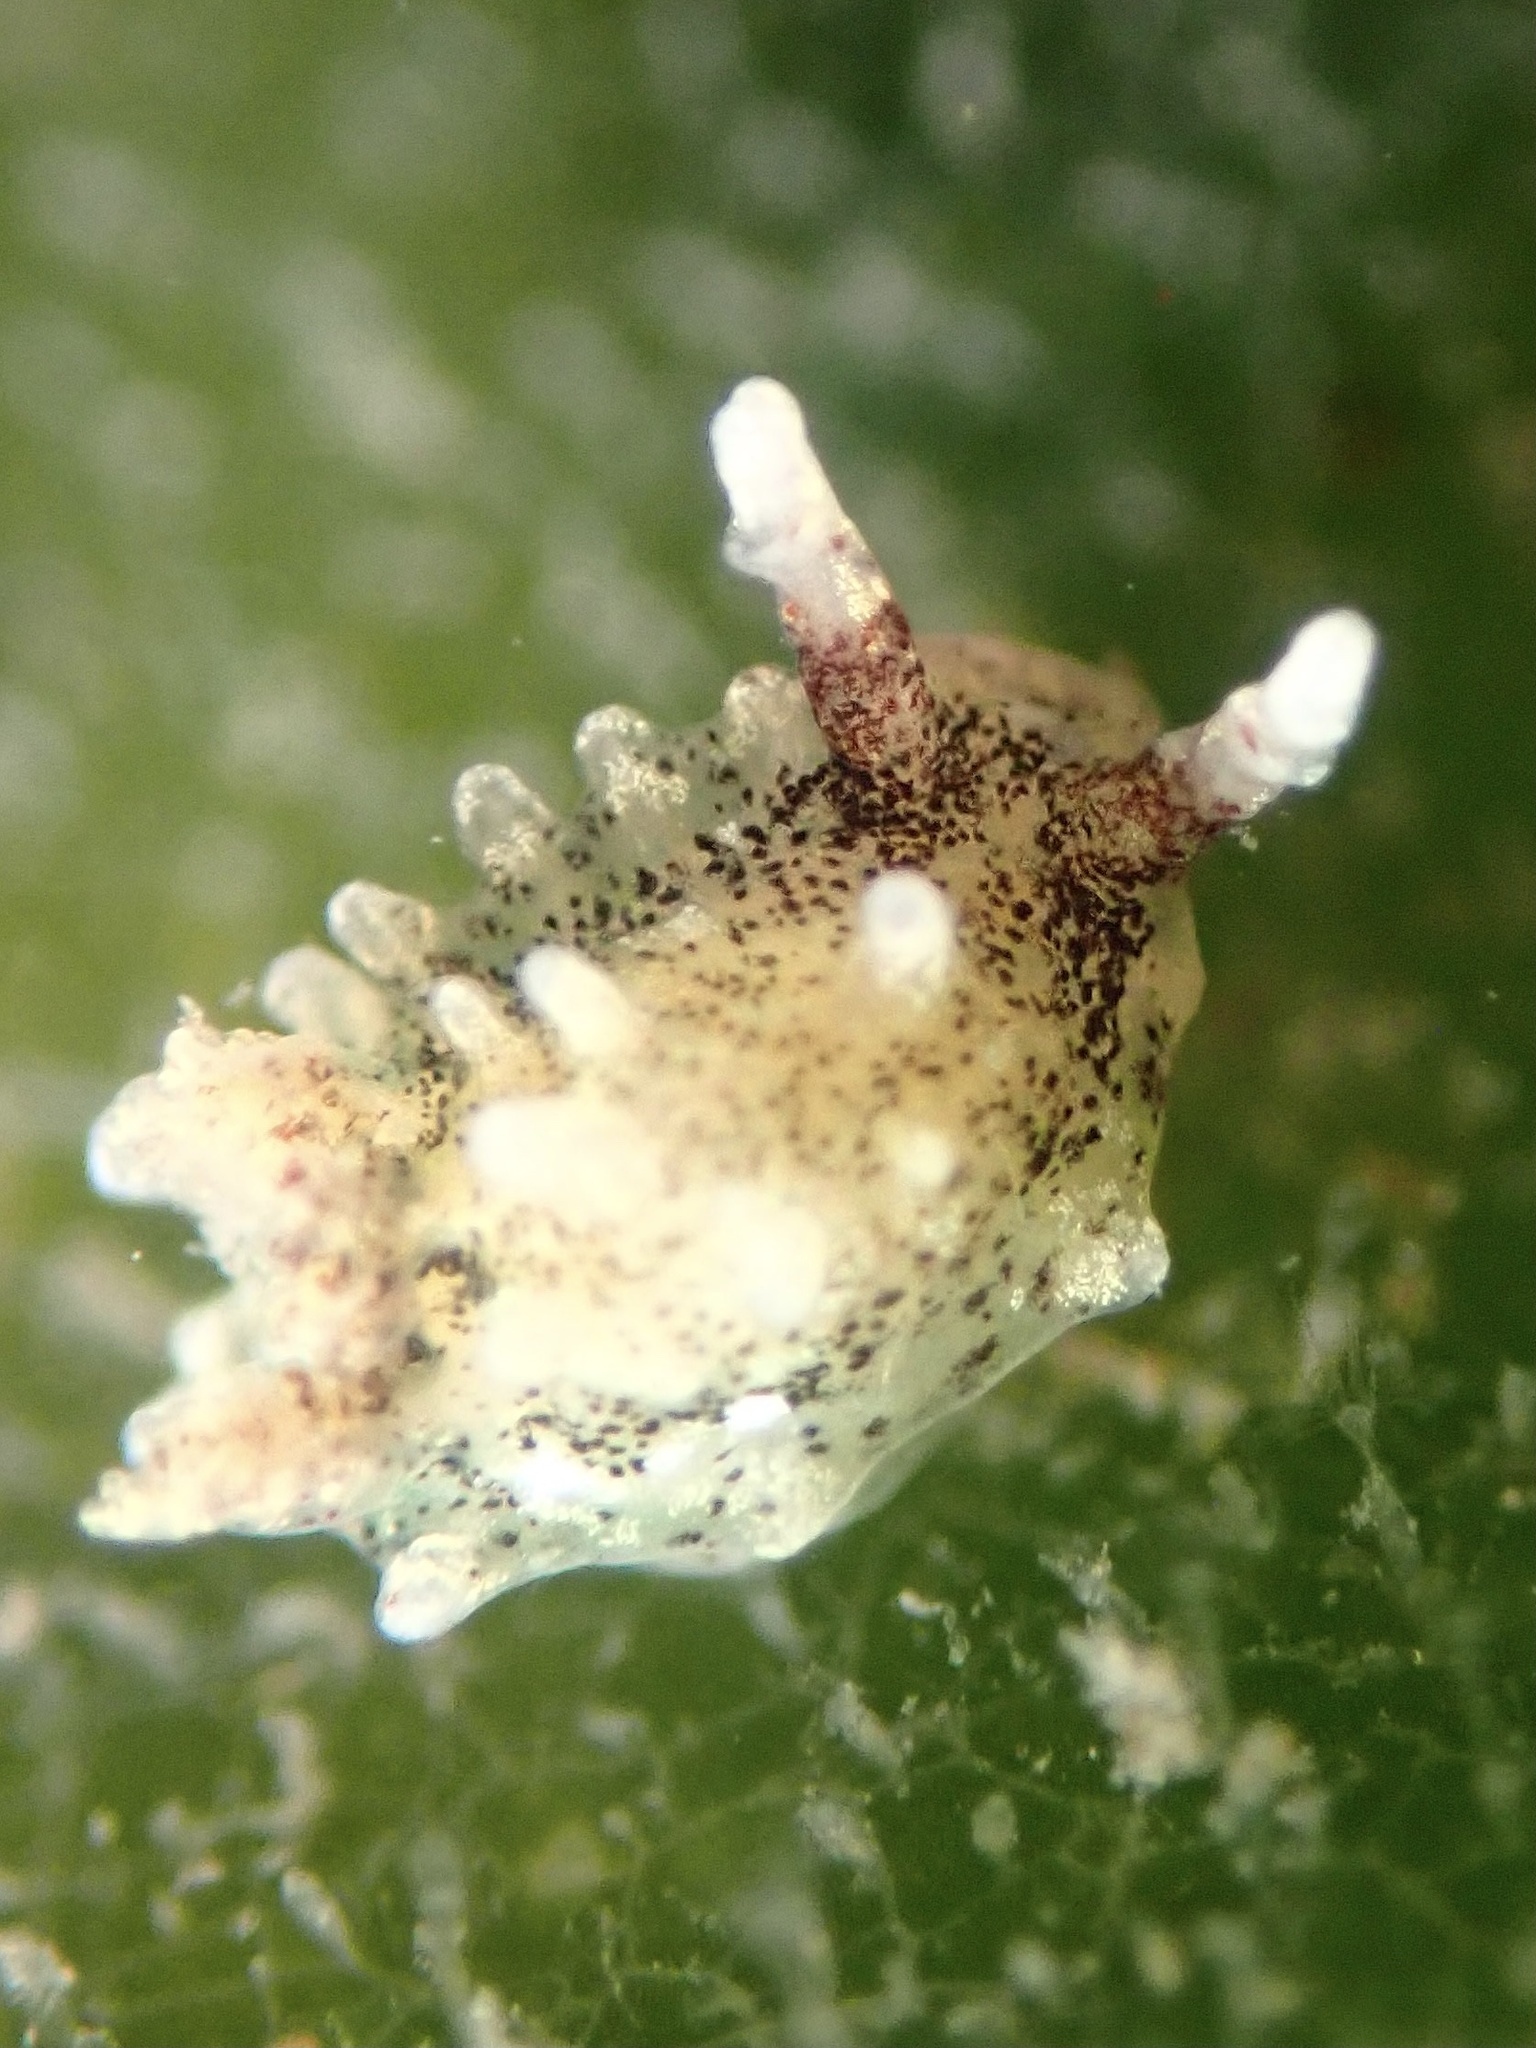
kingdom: Animalia
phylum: Mollusca
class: Gastropoda
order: Nudibranchia
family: Goniodorididae
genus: Okenia
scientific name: Okenia
